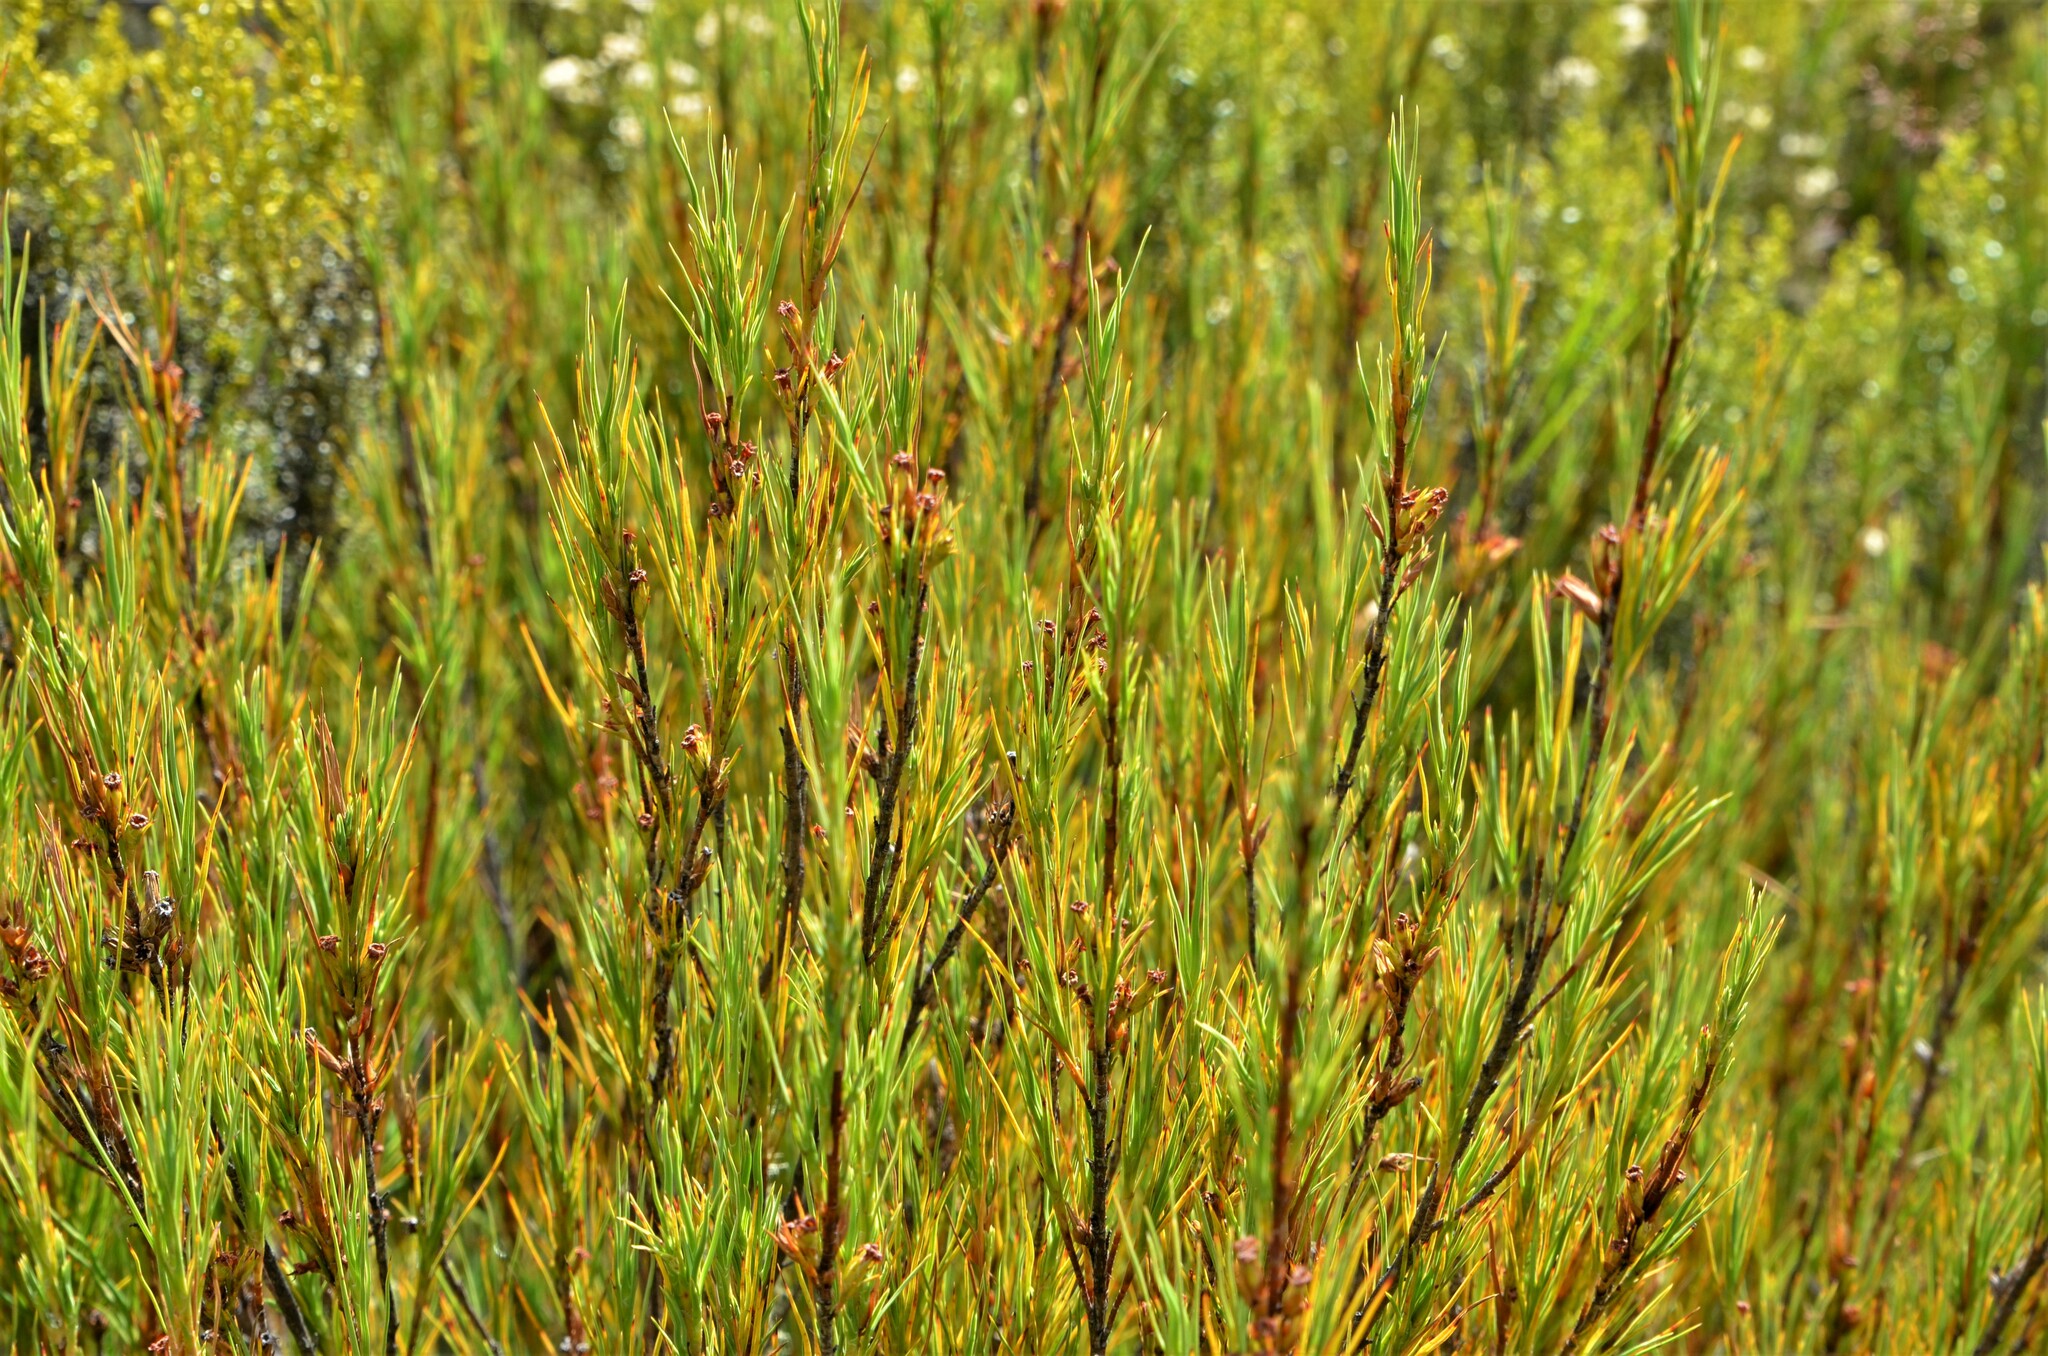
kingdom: Plantae
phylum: Tracheophyta
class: Magnoliopsida
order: Ericales
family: Ericaceae
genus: Dracophyllum
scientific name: Dracophyllum rosmarinifolium
